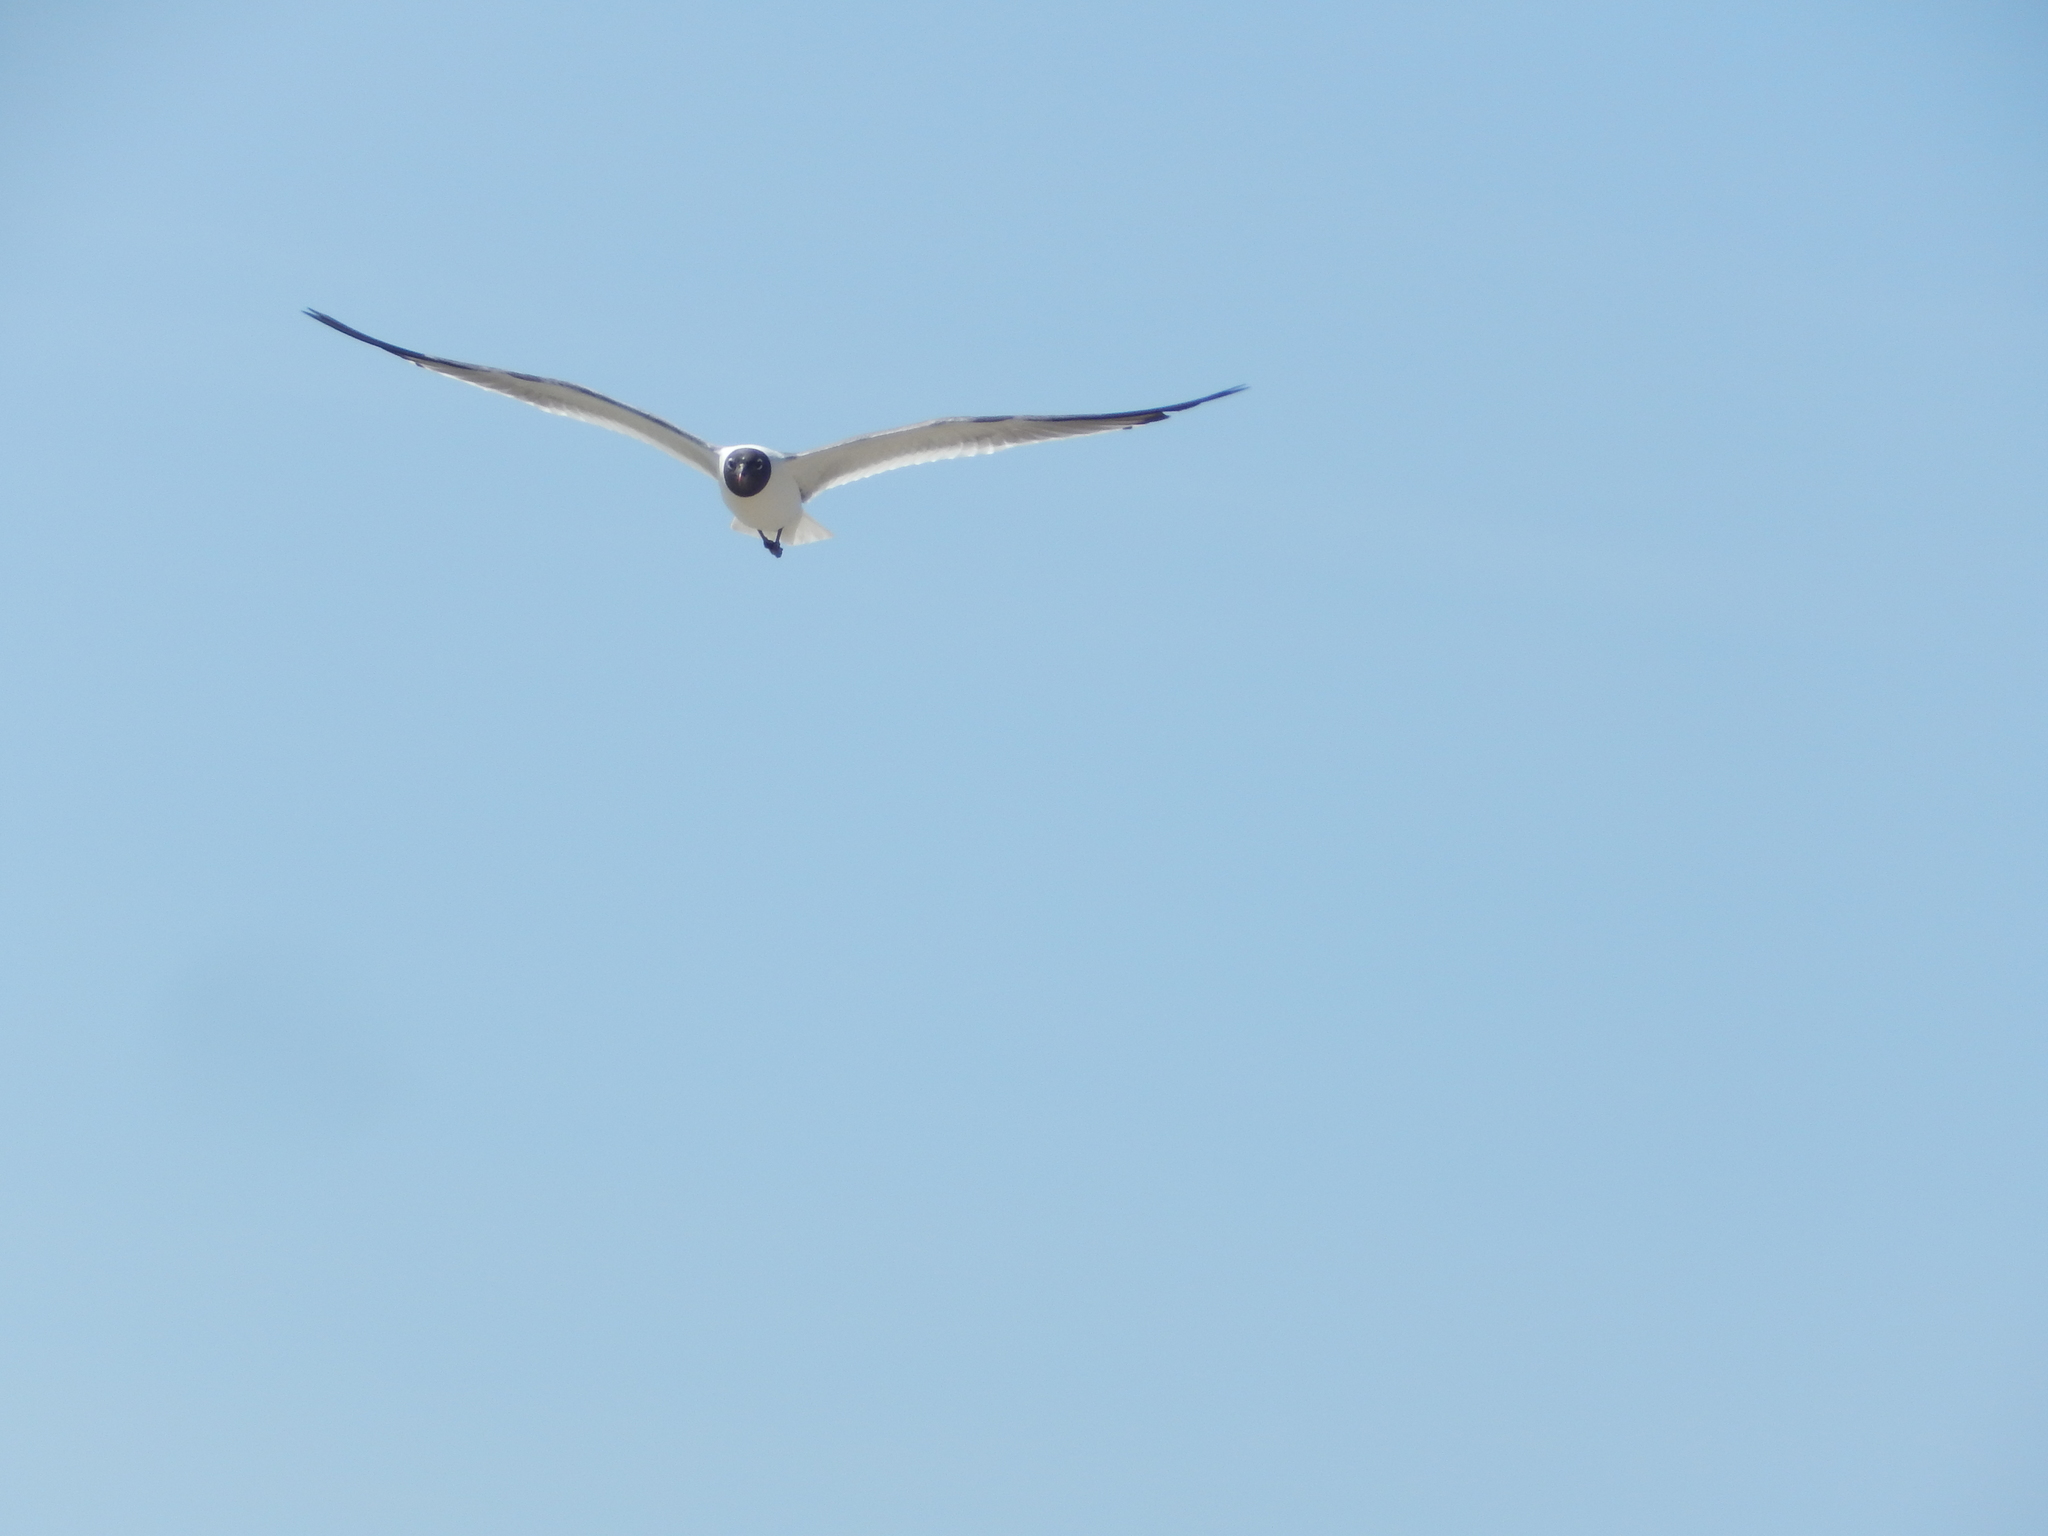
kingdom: Animalia
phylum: Chordata
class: Aves
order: Charadriiformes
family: Laridae
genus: Leucophaeus
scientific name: Leucophaeus atricilla
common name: Laughing gull
